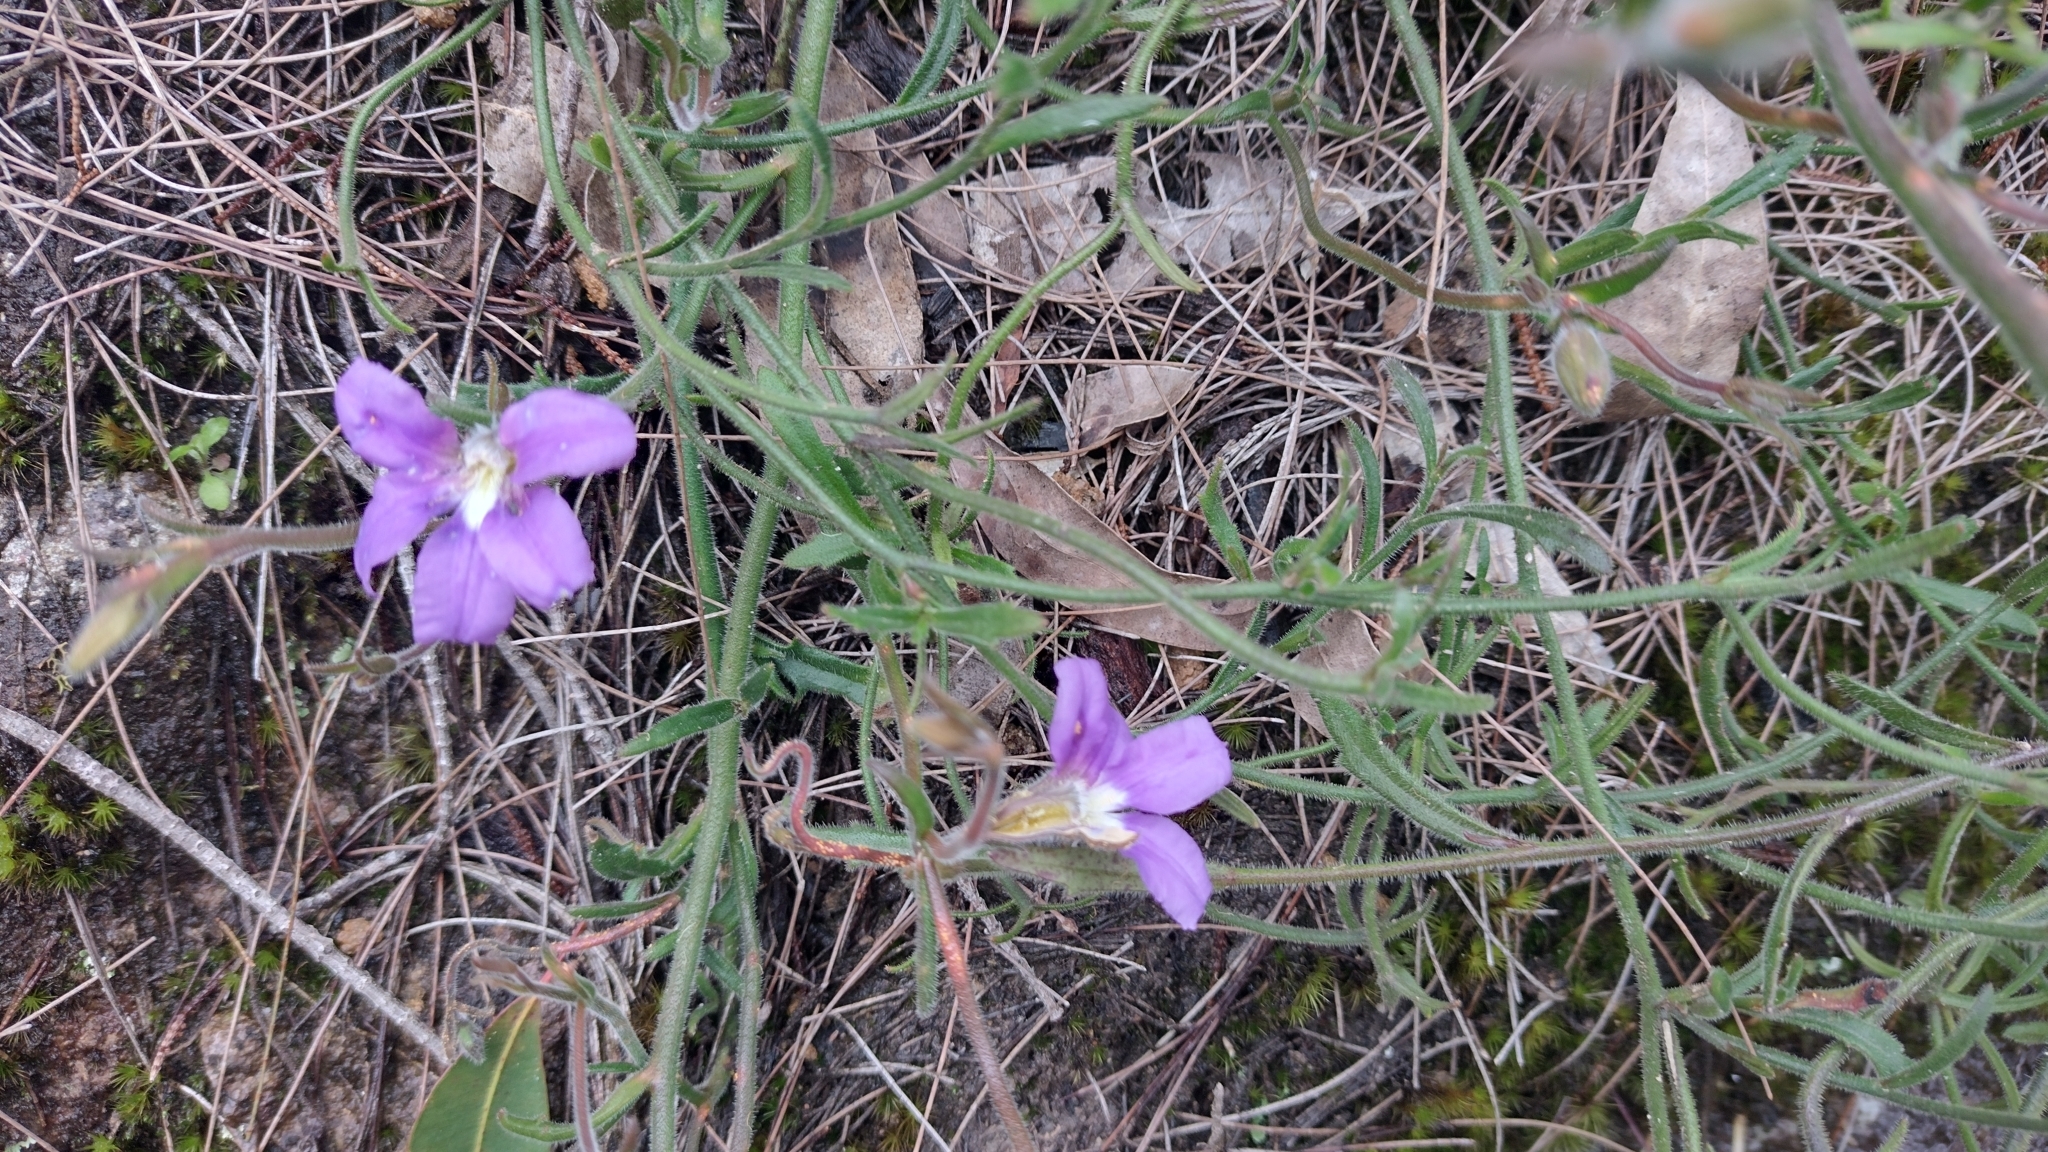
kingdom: Plantae
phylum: Tracheophyta
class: Magnoliopsida
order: Asterales
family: Goodeniaceae
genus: Scaevola
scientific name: Scaevola ramosissima
